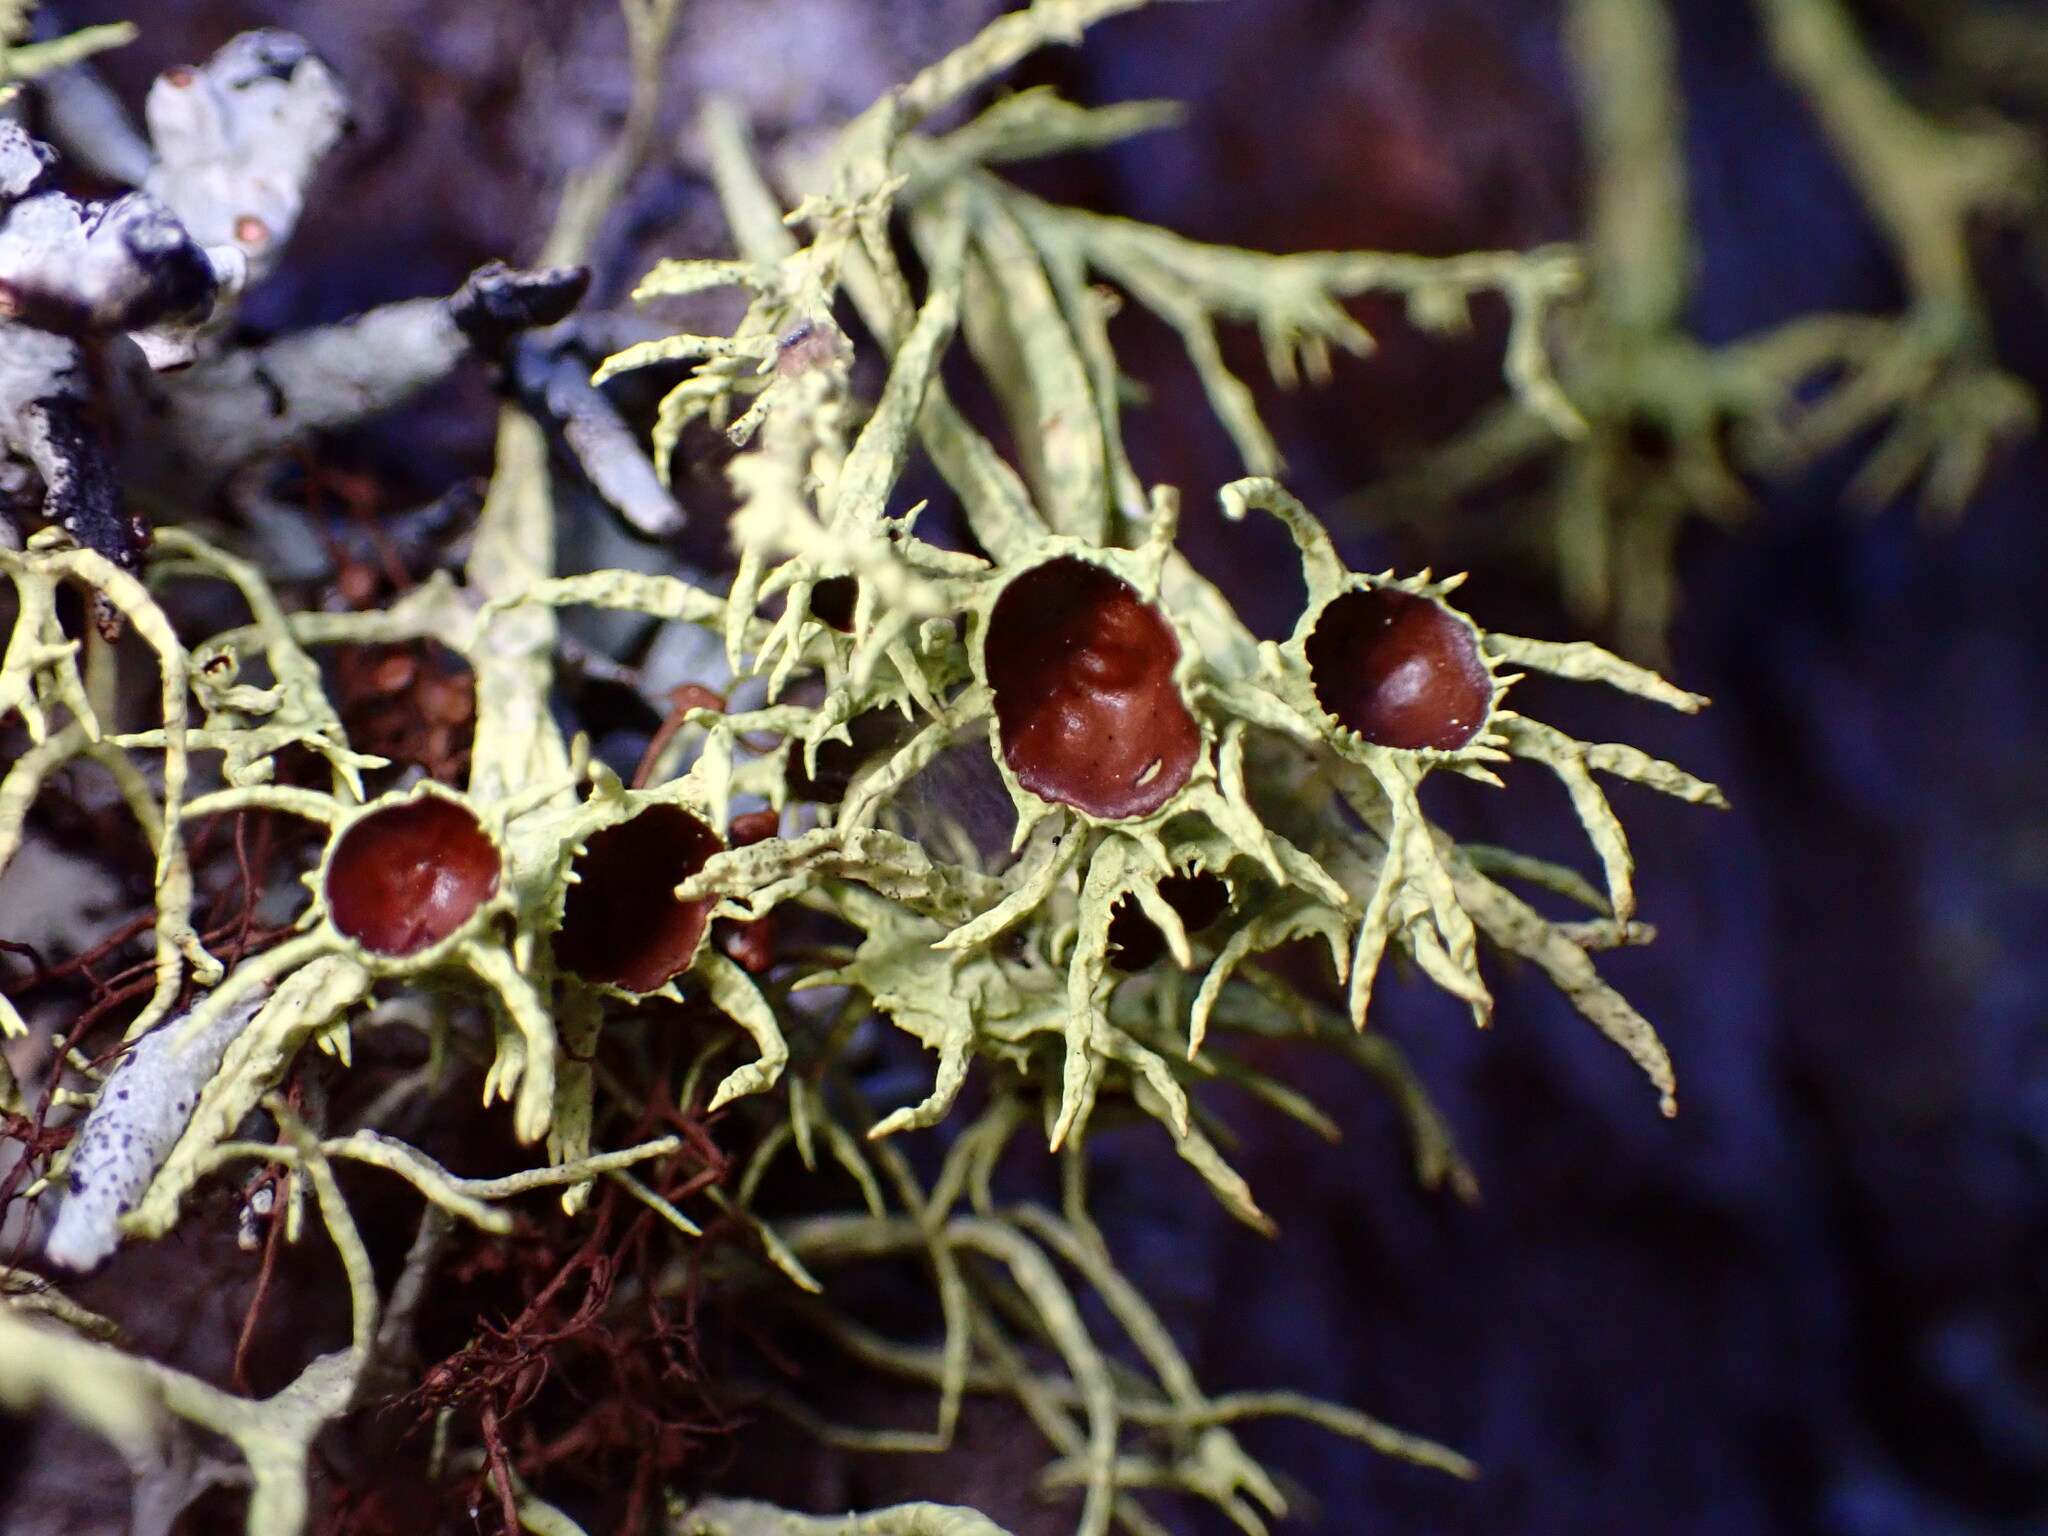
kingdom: Fungi
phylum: Ascomycota
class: Lecanoromycetes
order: Lecanorales
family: Parmeliaceae
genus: Letharia
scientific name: Letharia columbiana
